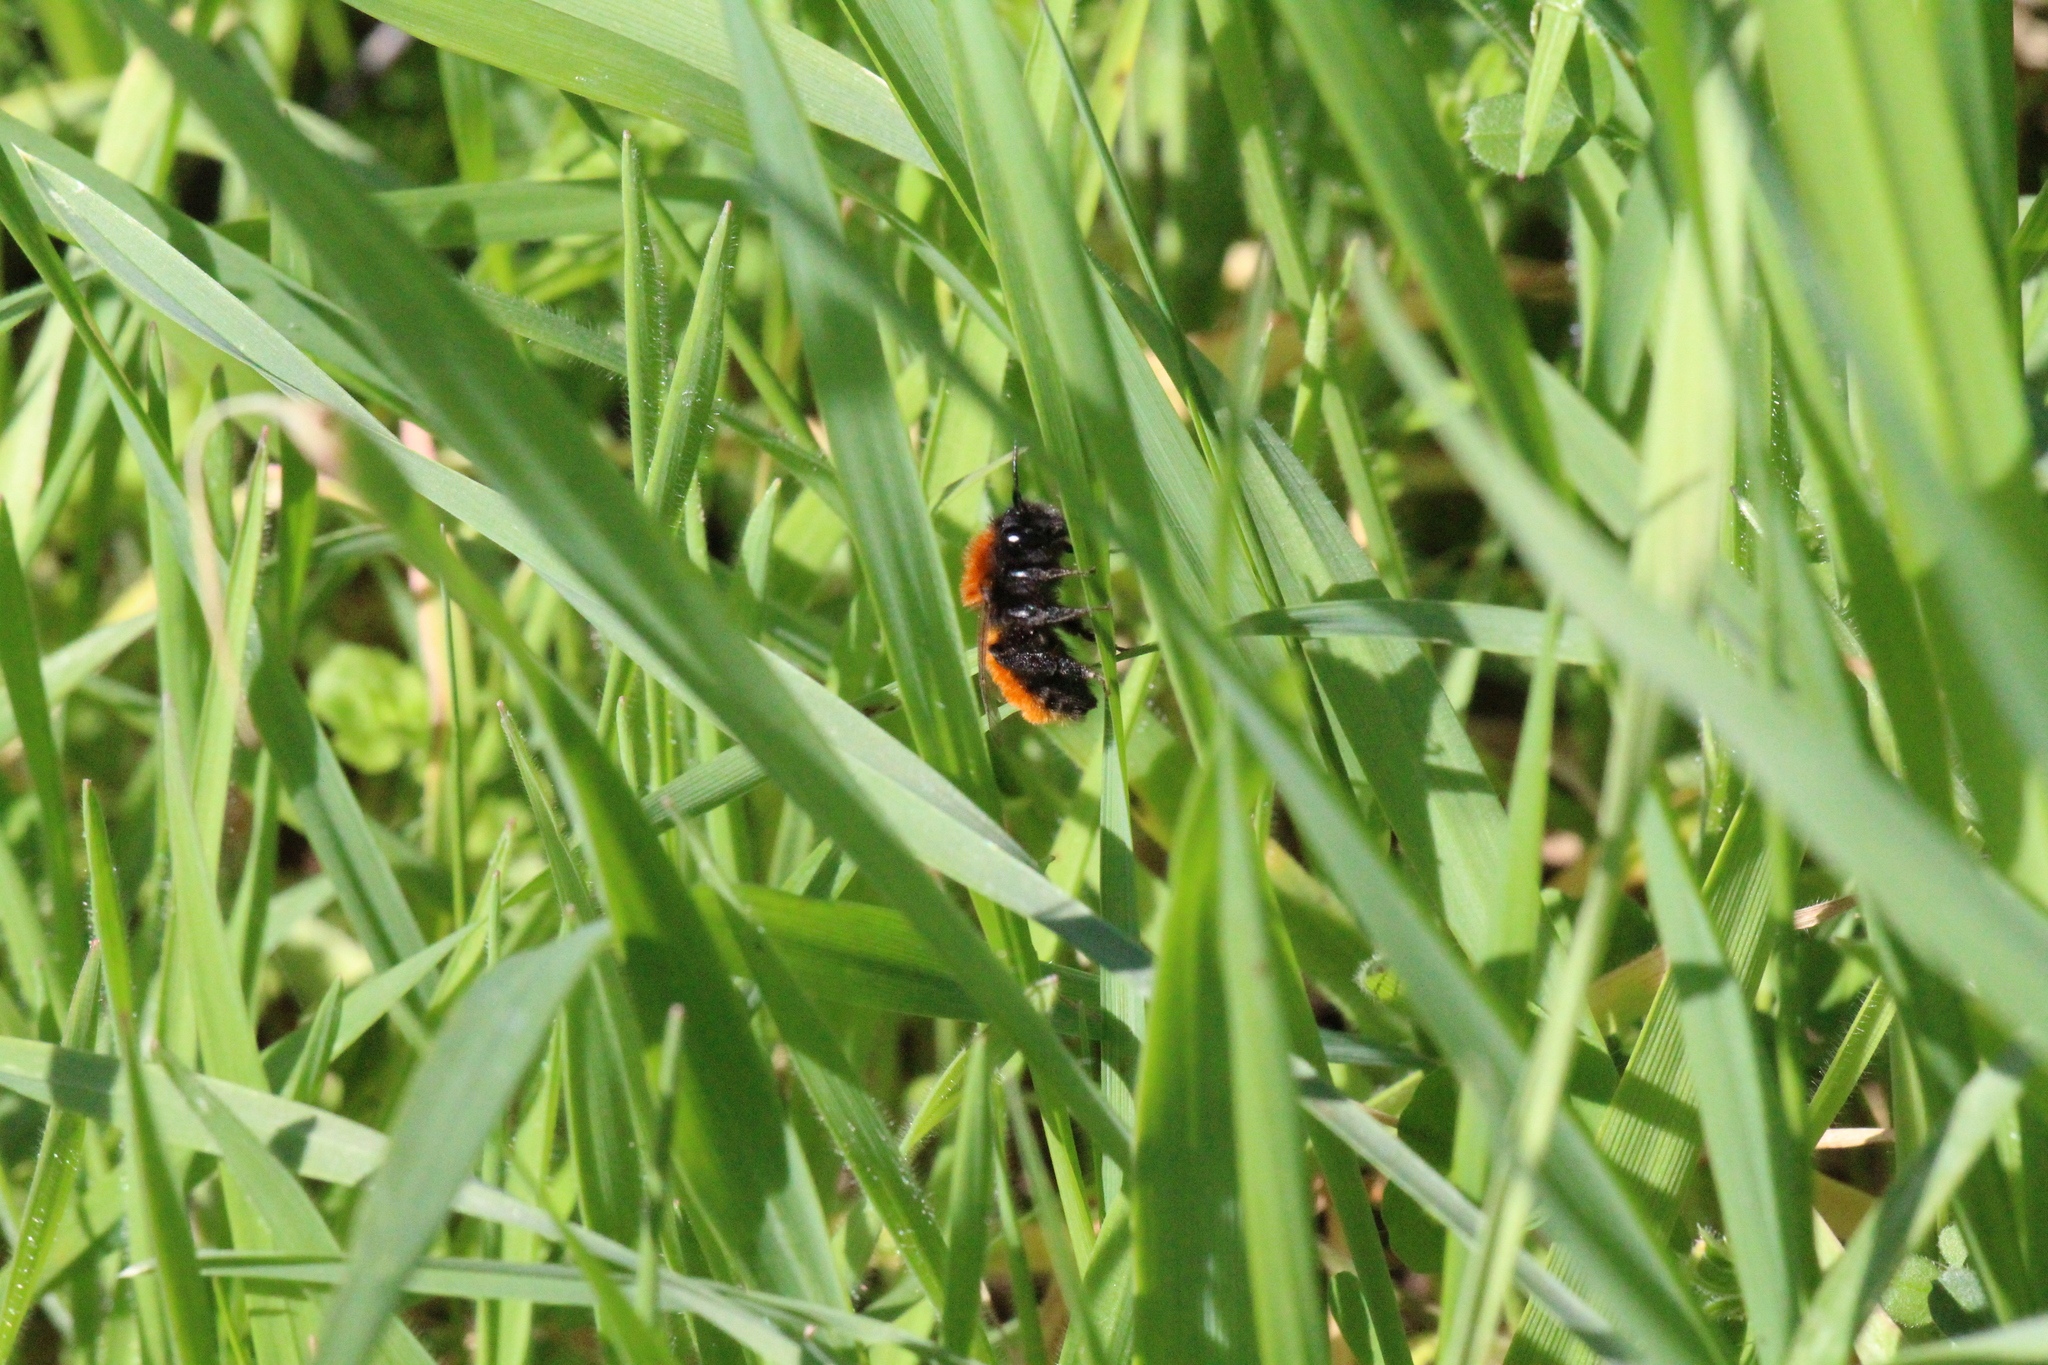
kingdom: Animalia
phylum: Arthropoda
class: Insecta
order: Hymenoptera
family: Andrenidae
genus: Andrena
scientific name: Andrena fulva
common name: Tawny mining bee
